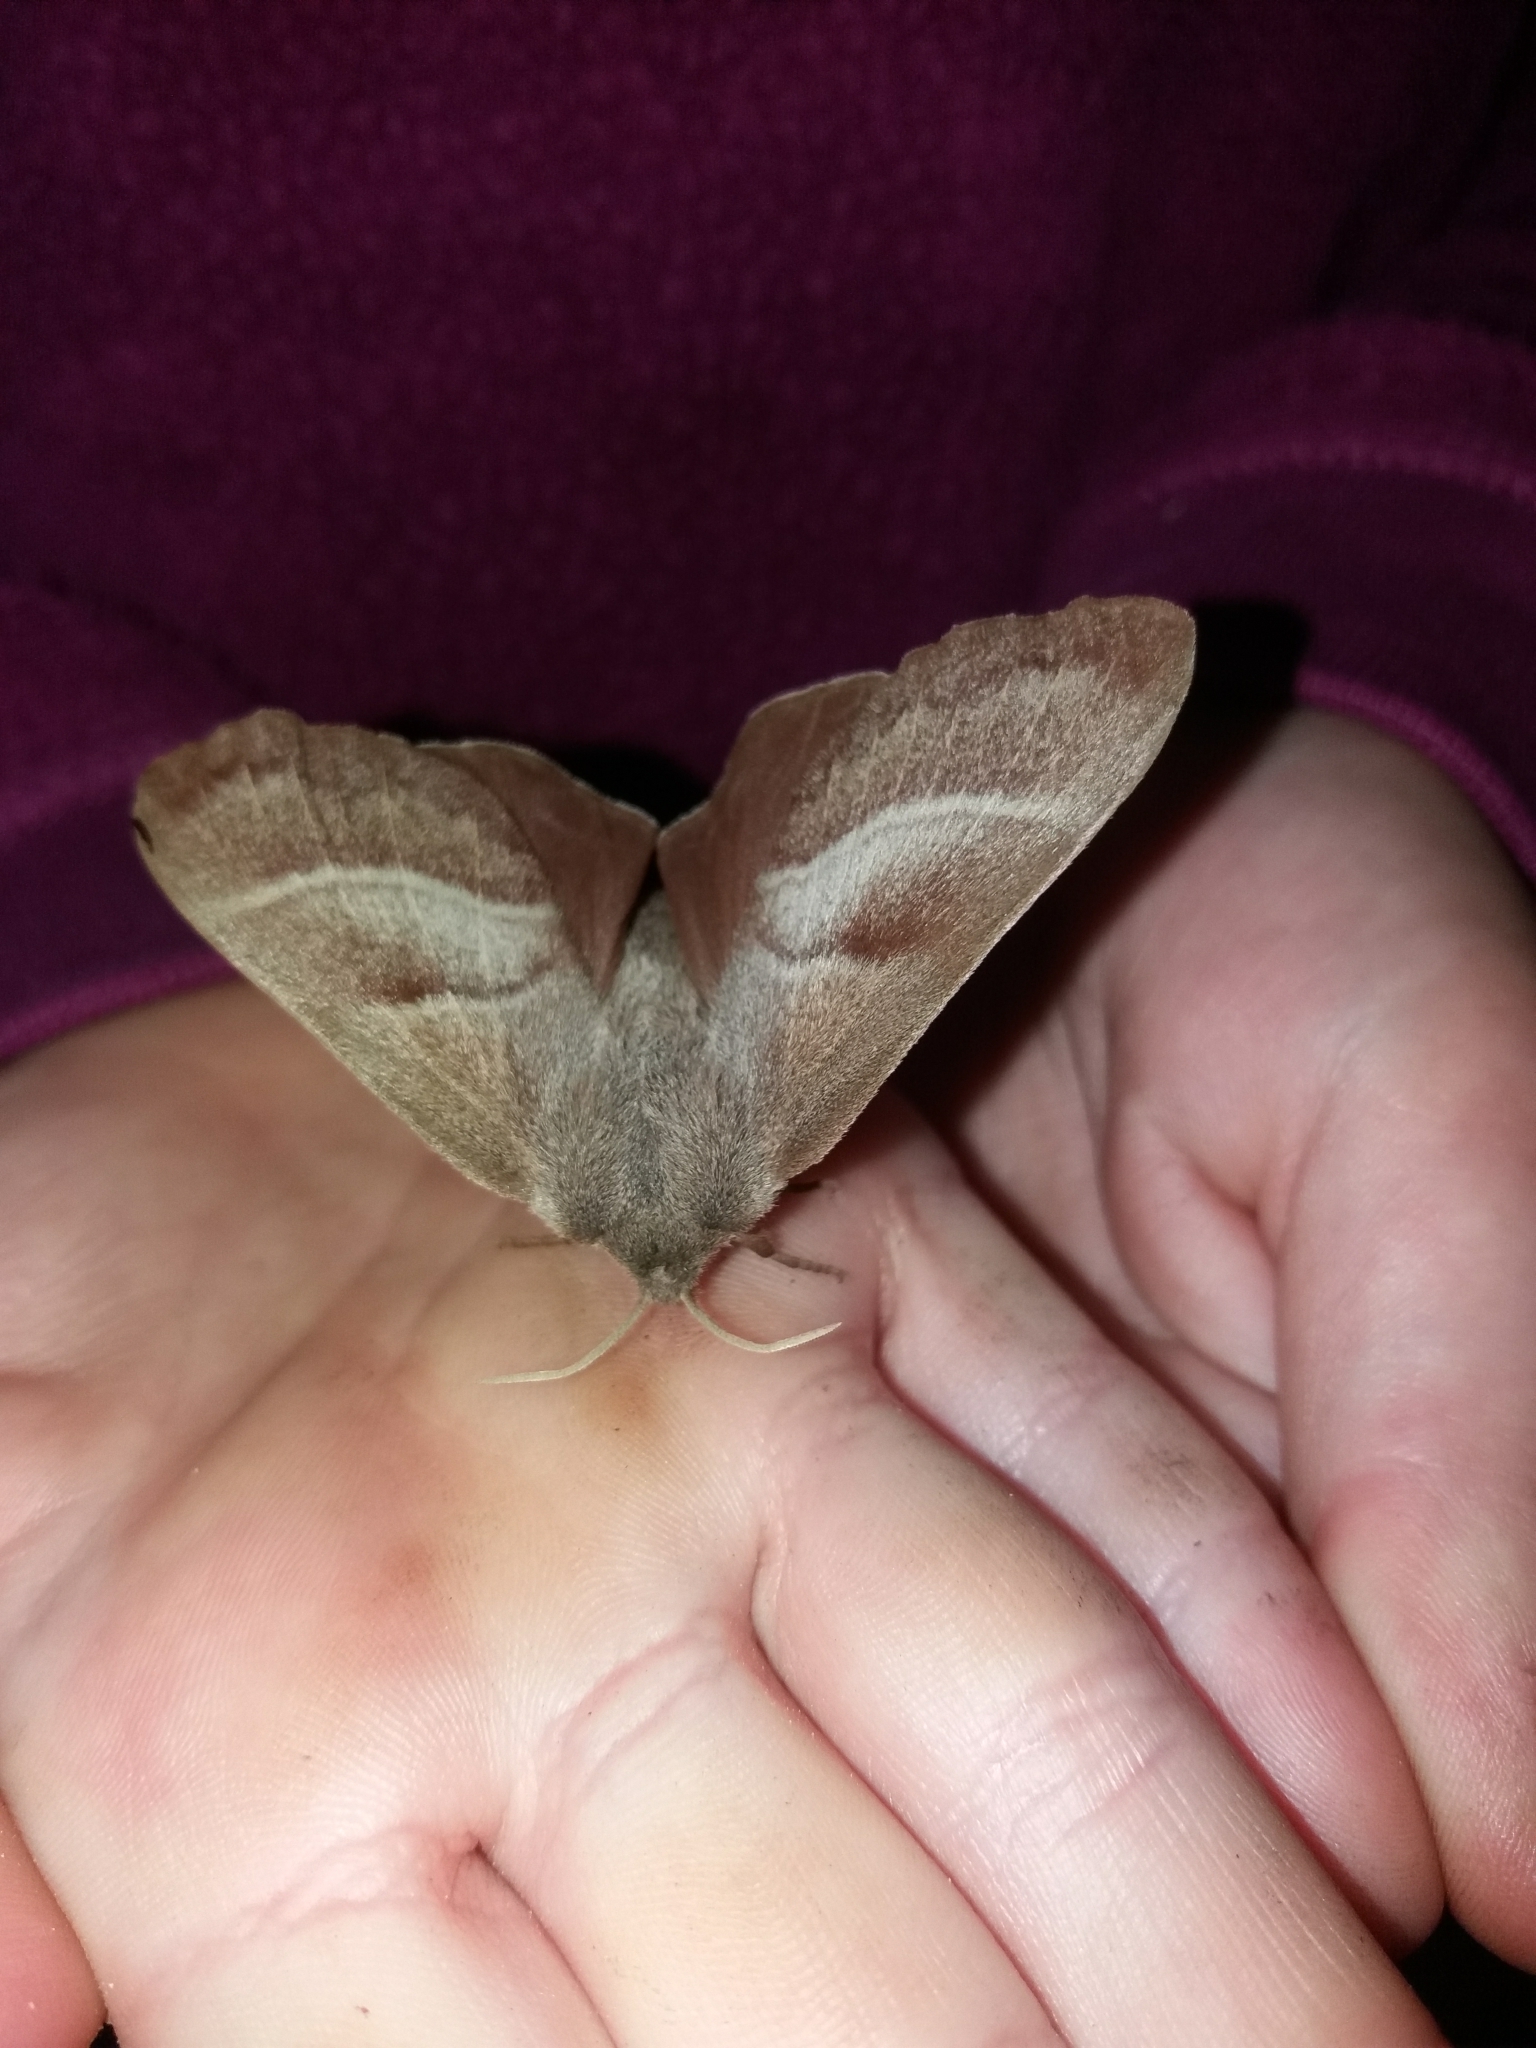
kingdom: Animalia
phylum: Arthropoda
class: Insecta
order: Lepidoptera
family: Lasiocampidae
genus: Macrothylacia
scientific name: Macrothylacia rubi
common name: Fox moth
